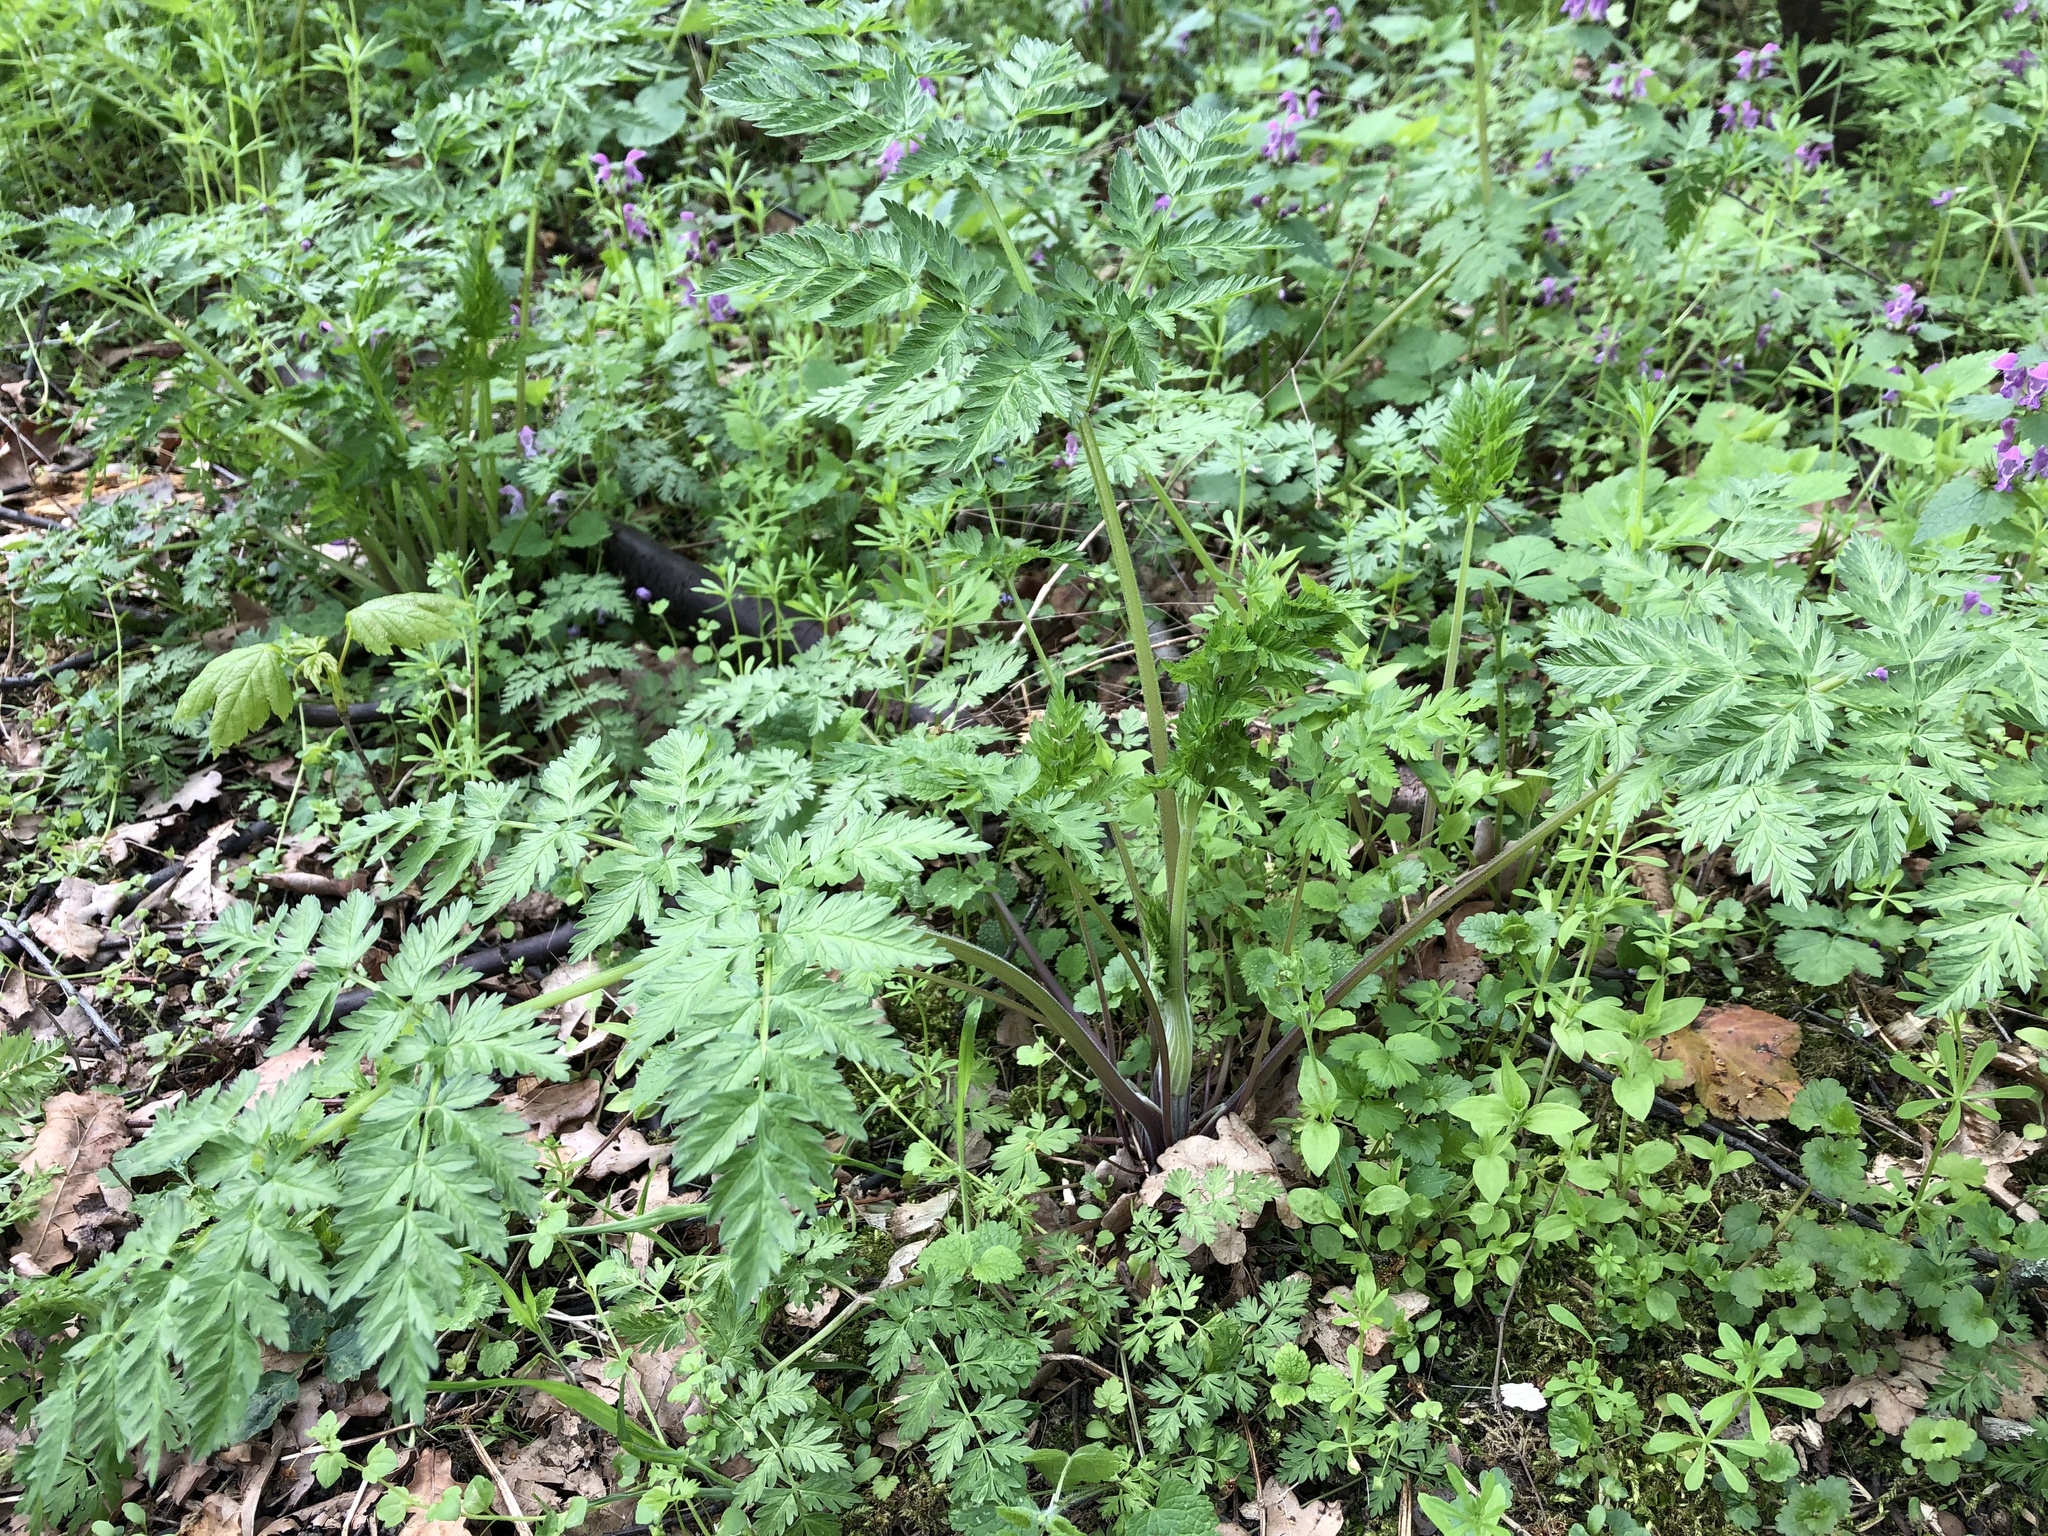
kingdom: Plantae
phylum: Tracheophyta
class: Magnoliopsida
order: Apiales
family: Apiaceae
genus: Anthriscus
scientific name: Anthriscus sylvestris
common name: Cow parsley
